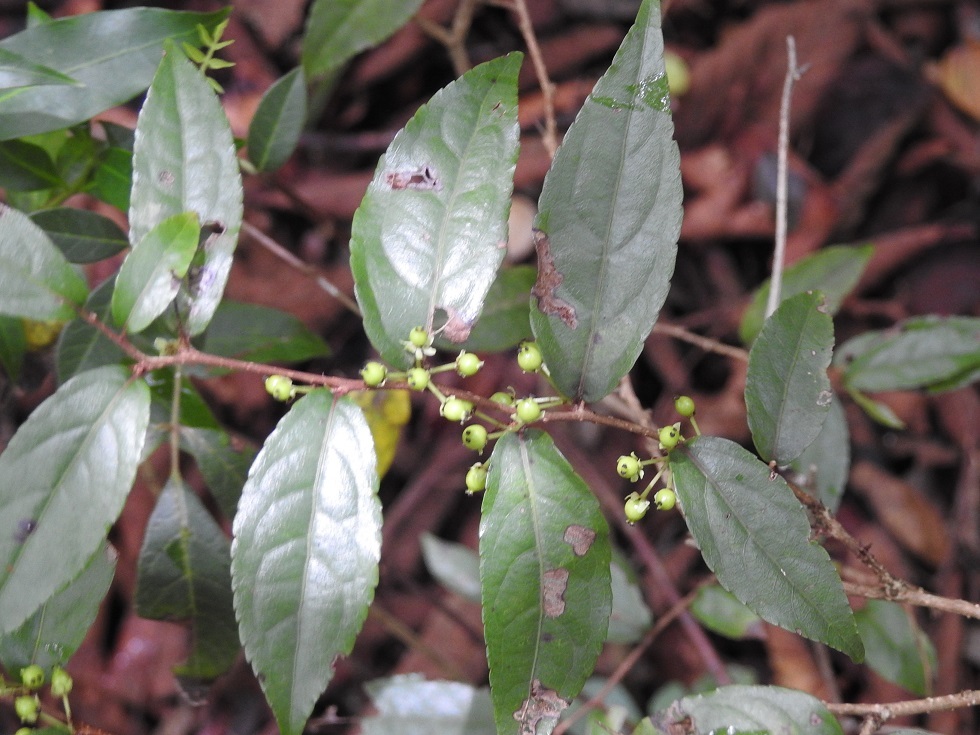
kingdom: Plantae
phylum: Tracheophyta
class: Magnoliopsida
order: Malpighiales
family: Salicaceae
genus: Xylosma
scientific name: Xylosma chiapensis
